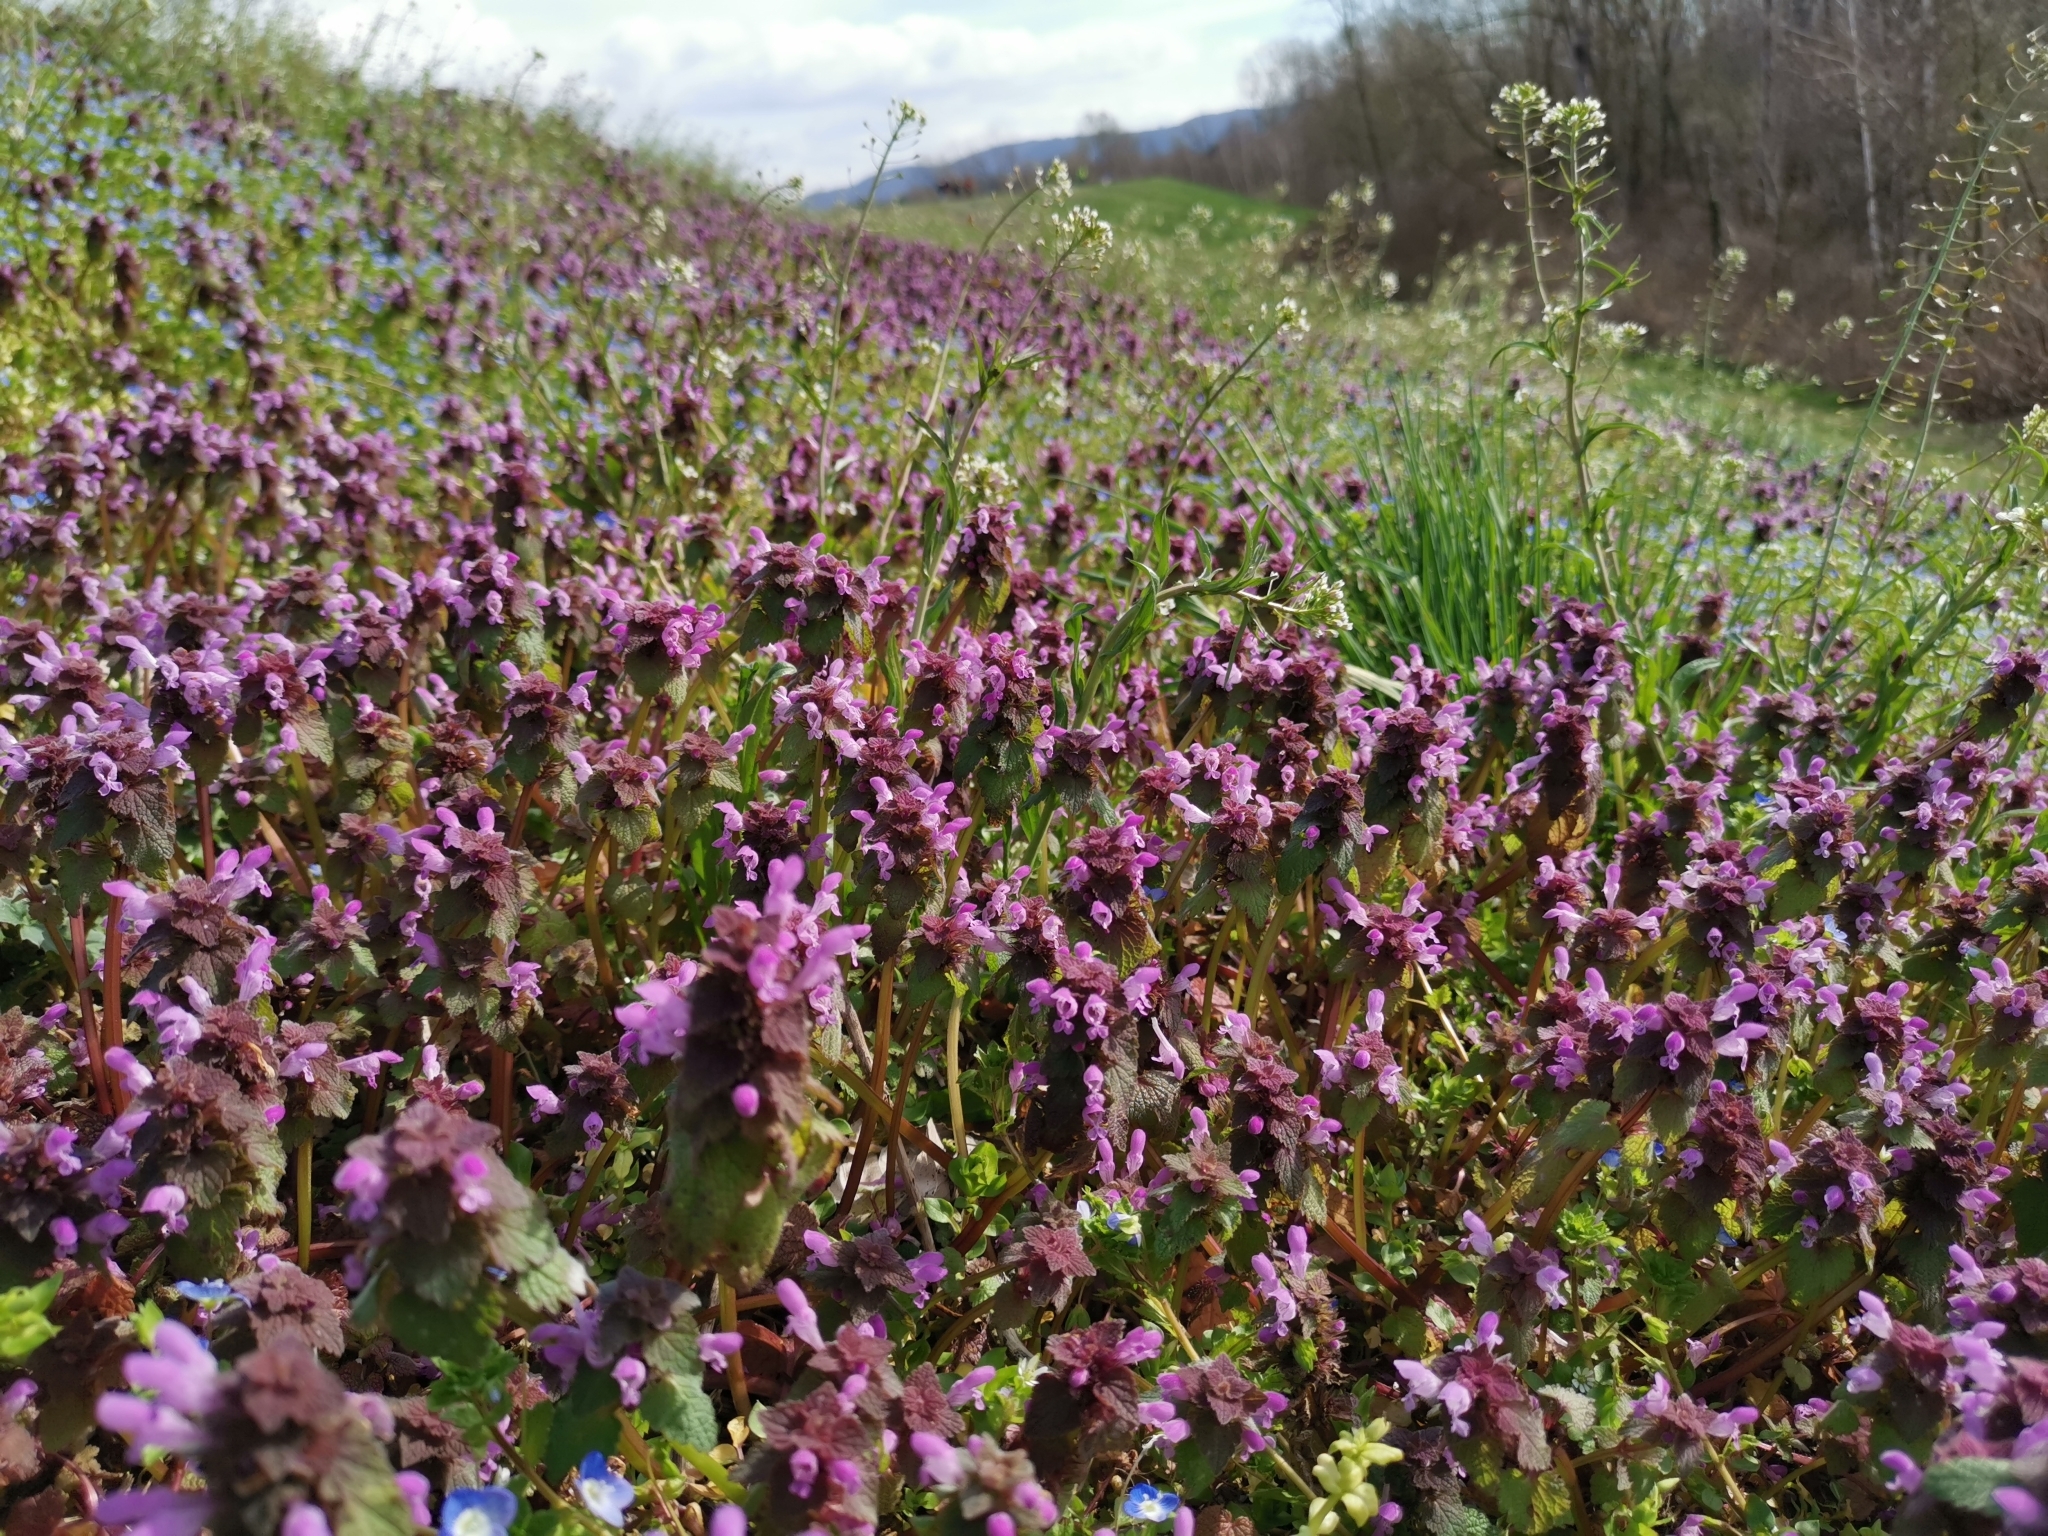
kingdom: Plantae
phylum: Tracheophyta
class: Magnoliopsida
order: Lamiales
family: Lamiaceae
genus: Lamium
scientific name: Lamium purpureum
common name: Red dead-nettle
